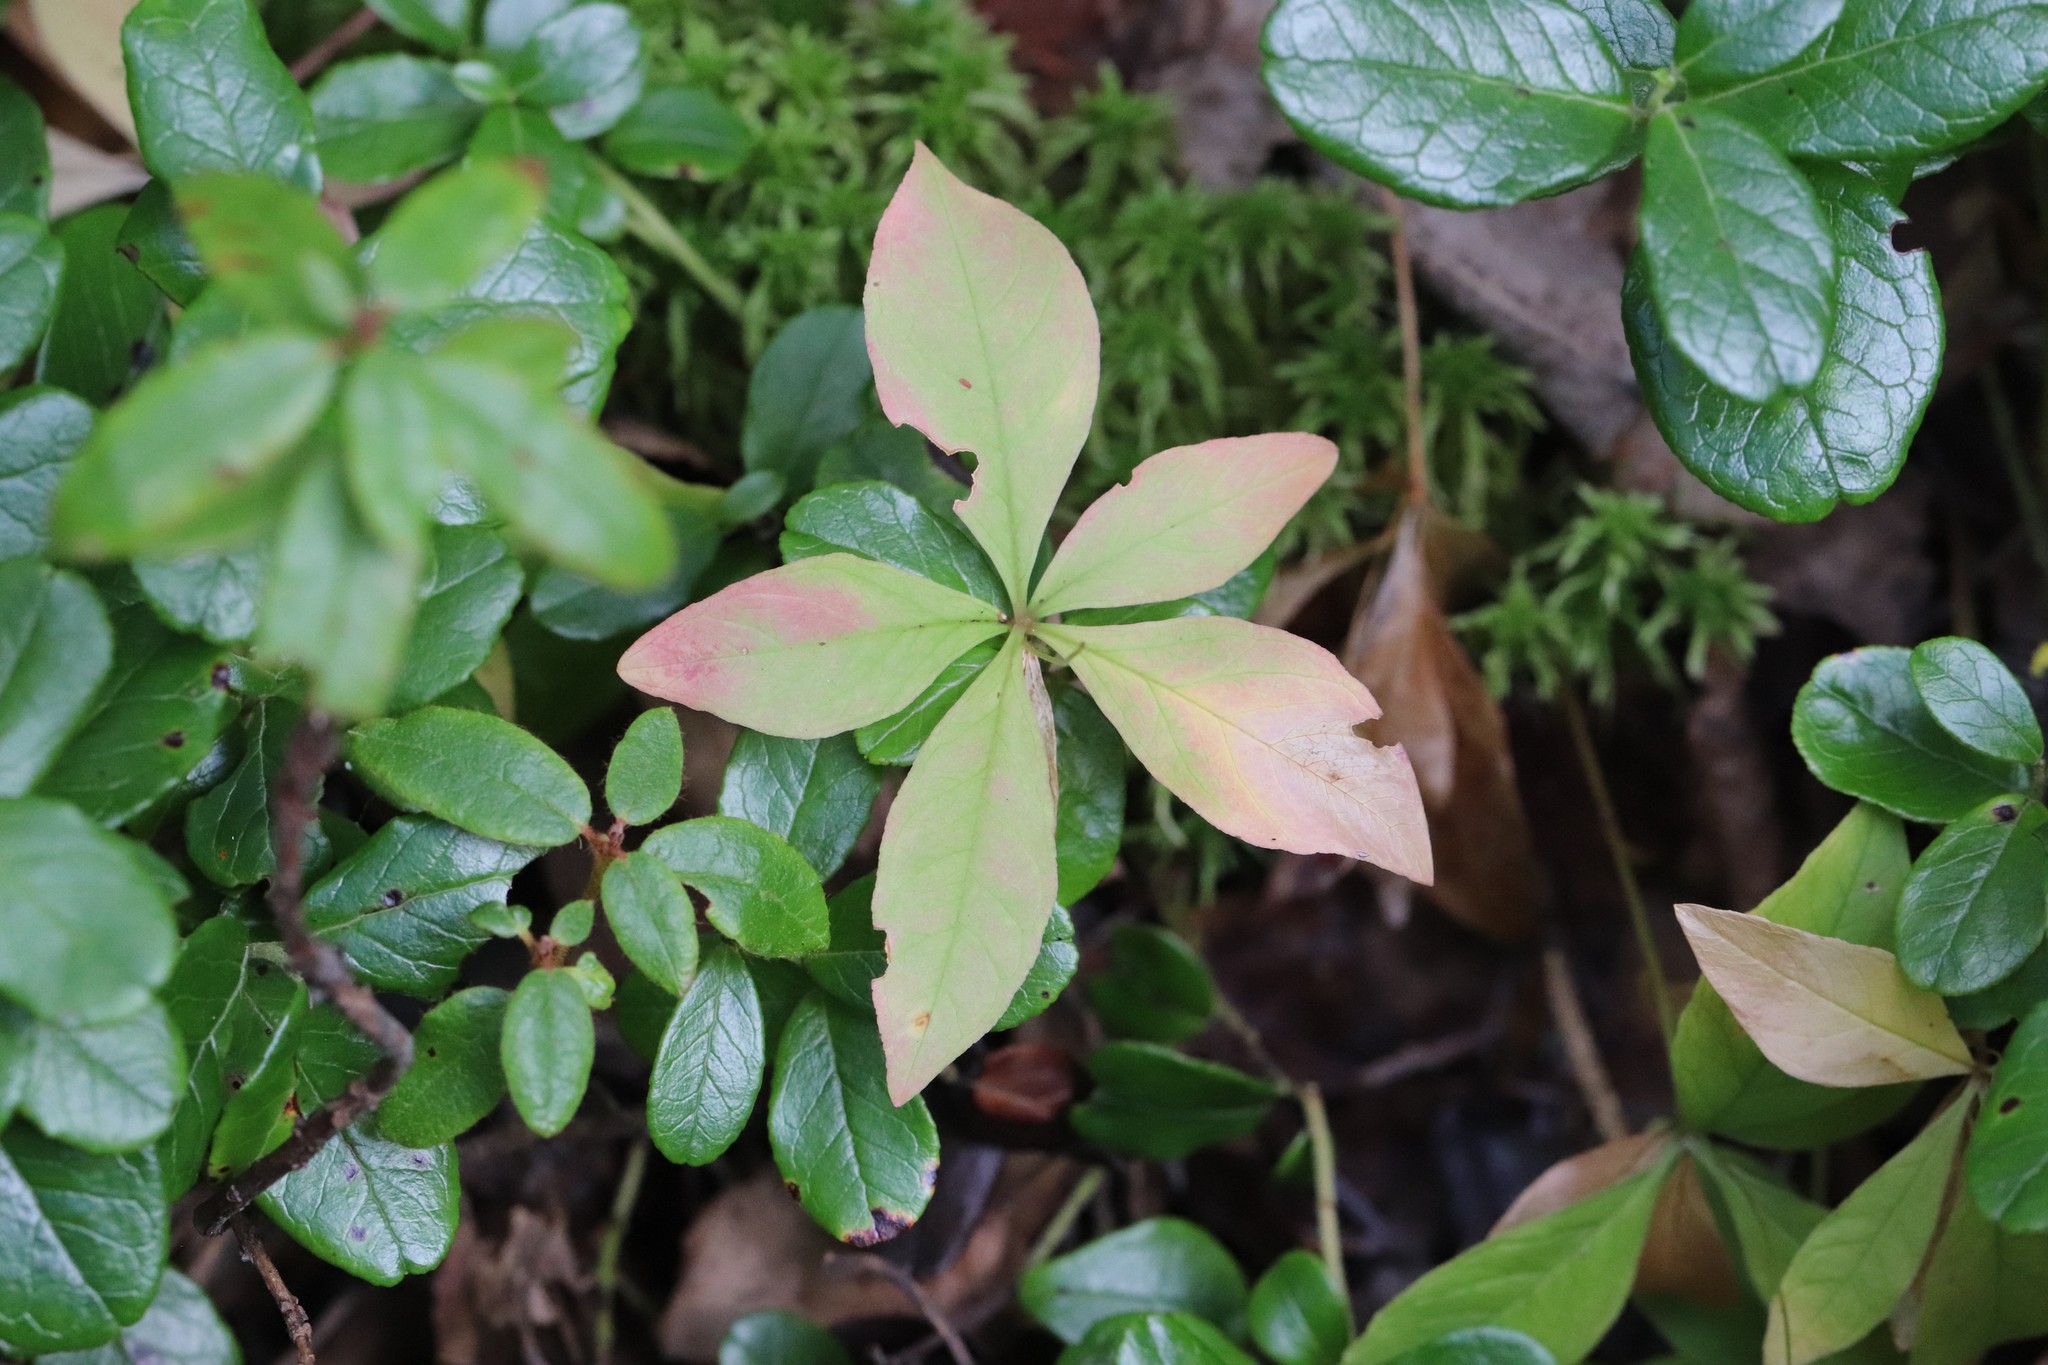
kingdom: Plantae
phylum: Tracheophyta
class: Magnoliopsida
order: Ericales
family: Primulaceae
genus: Lysimachia
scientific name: Lysimachia europaea
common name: Arctic starflower
